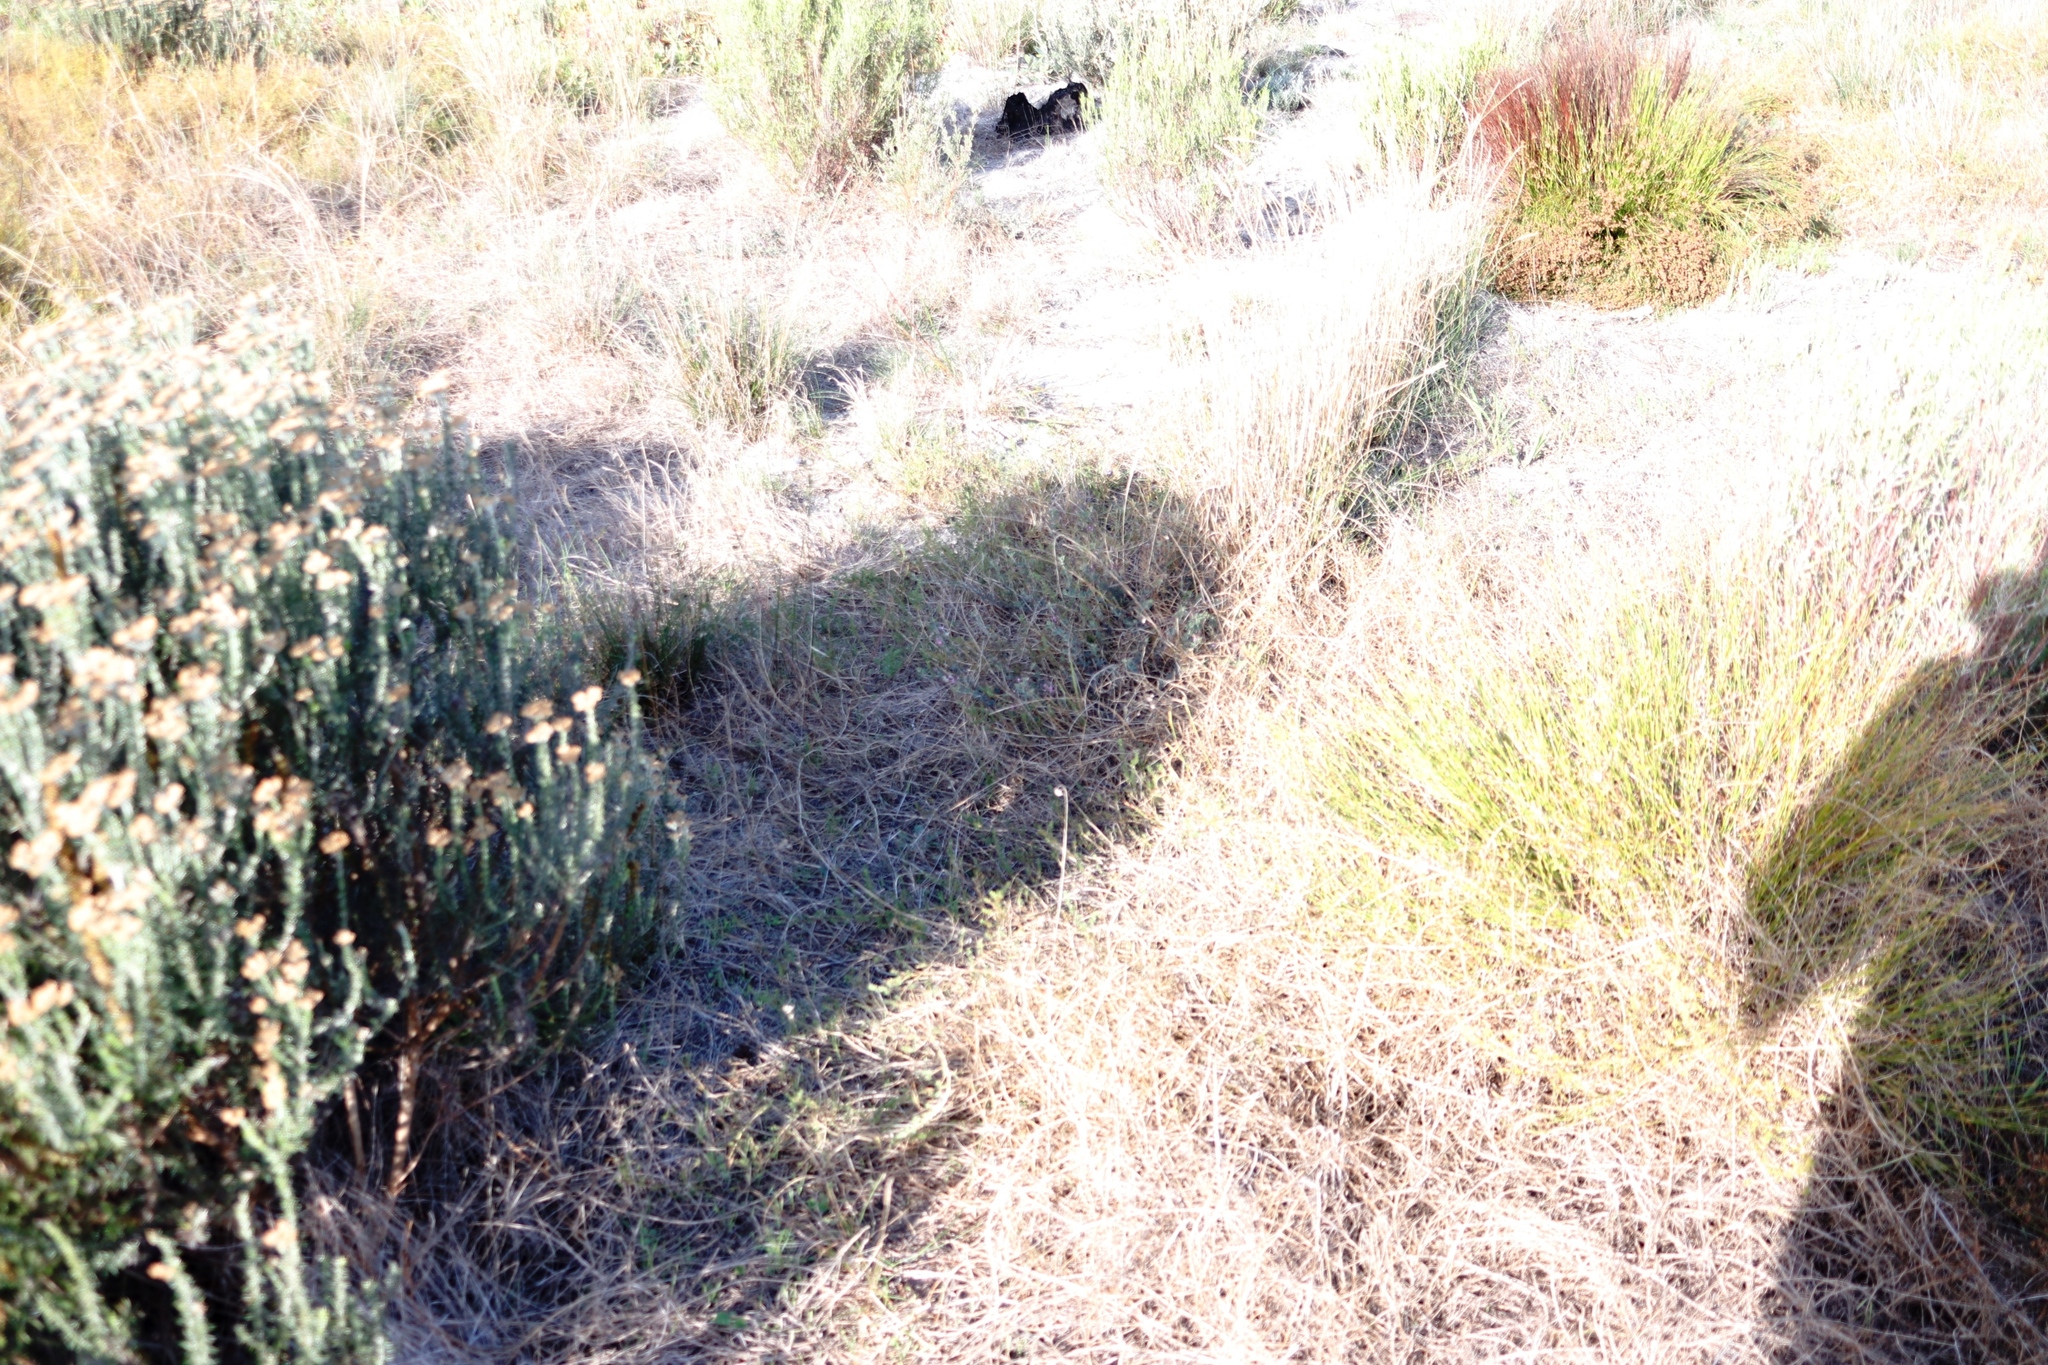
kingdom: Plantae
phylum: Tracheophyta
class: Magnoliopsida
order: Asterales
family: Campanulaceae
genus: Lobelia
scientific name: Lobelia comosa
